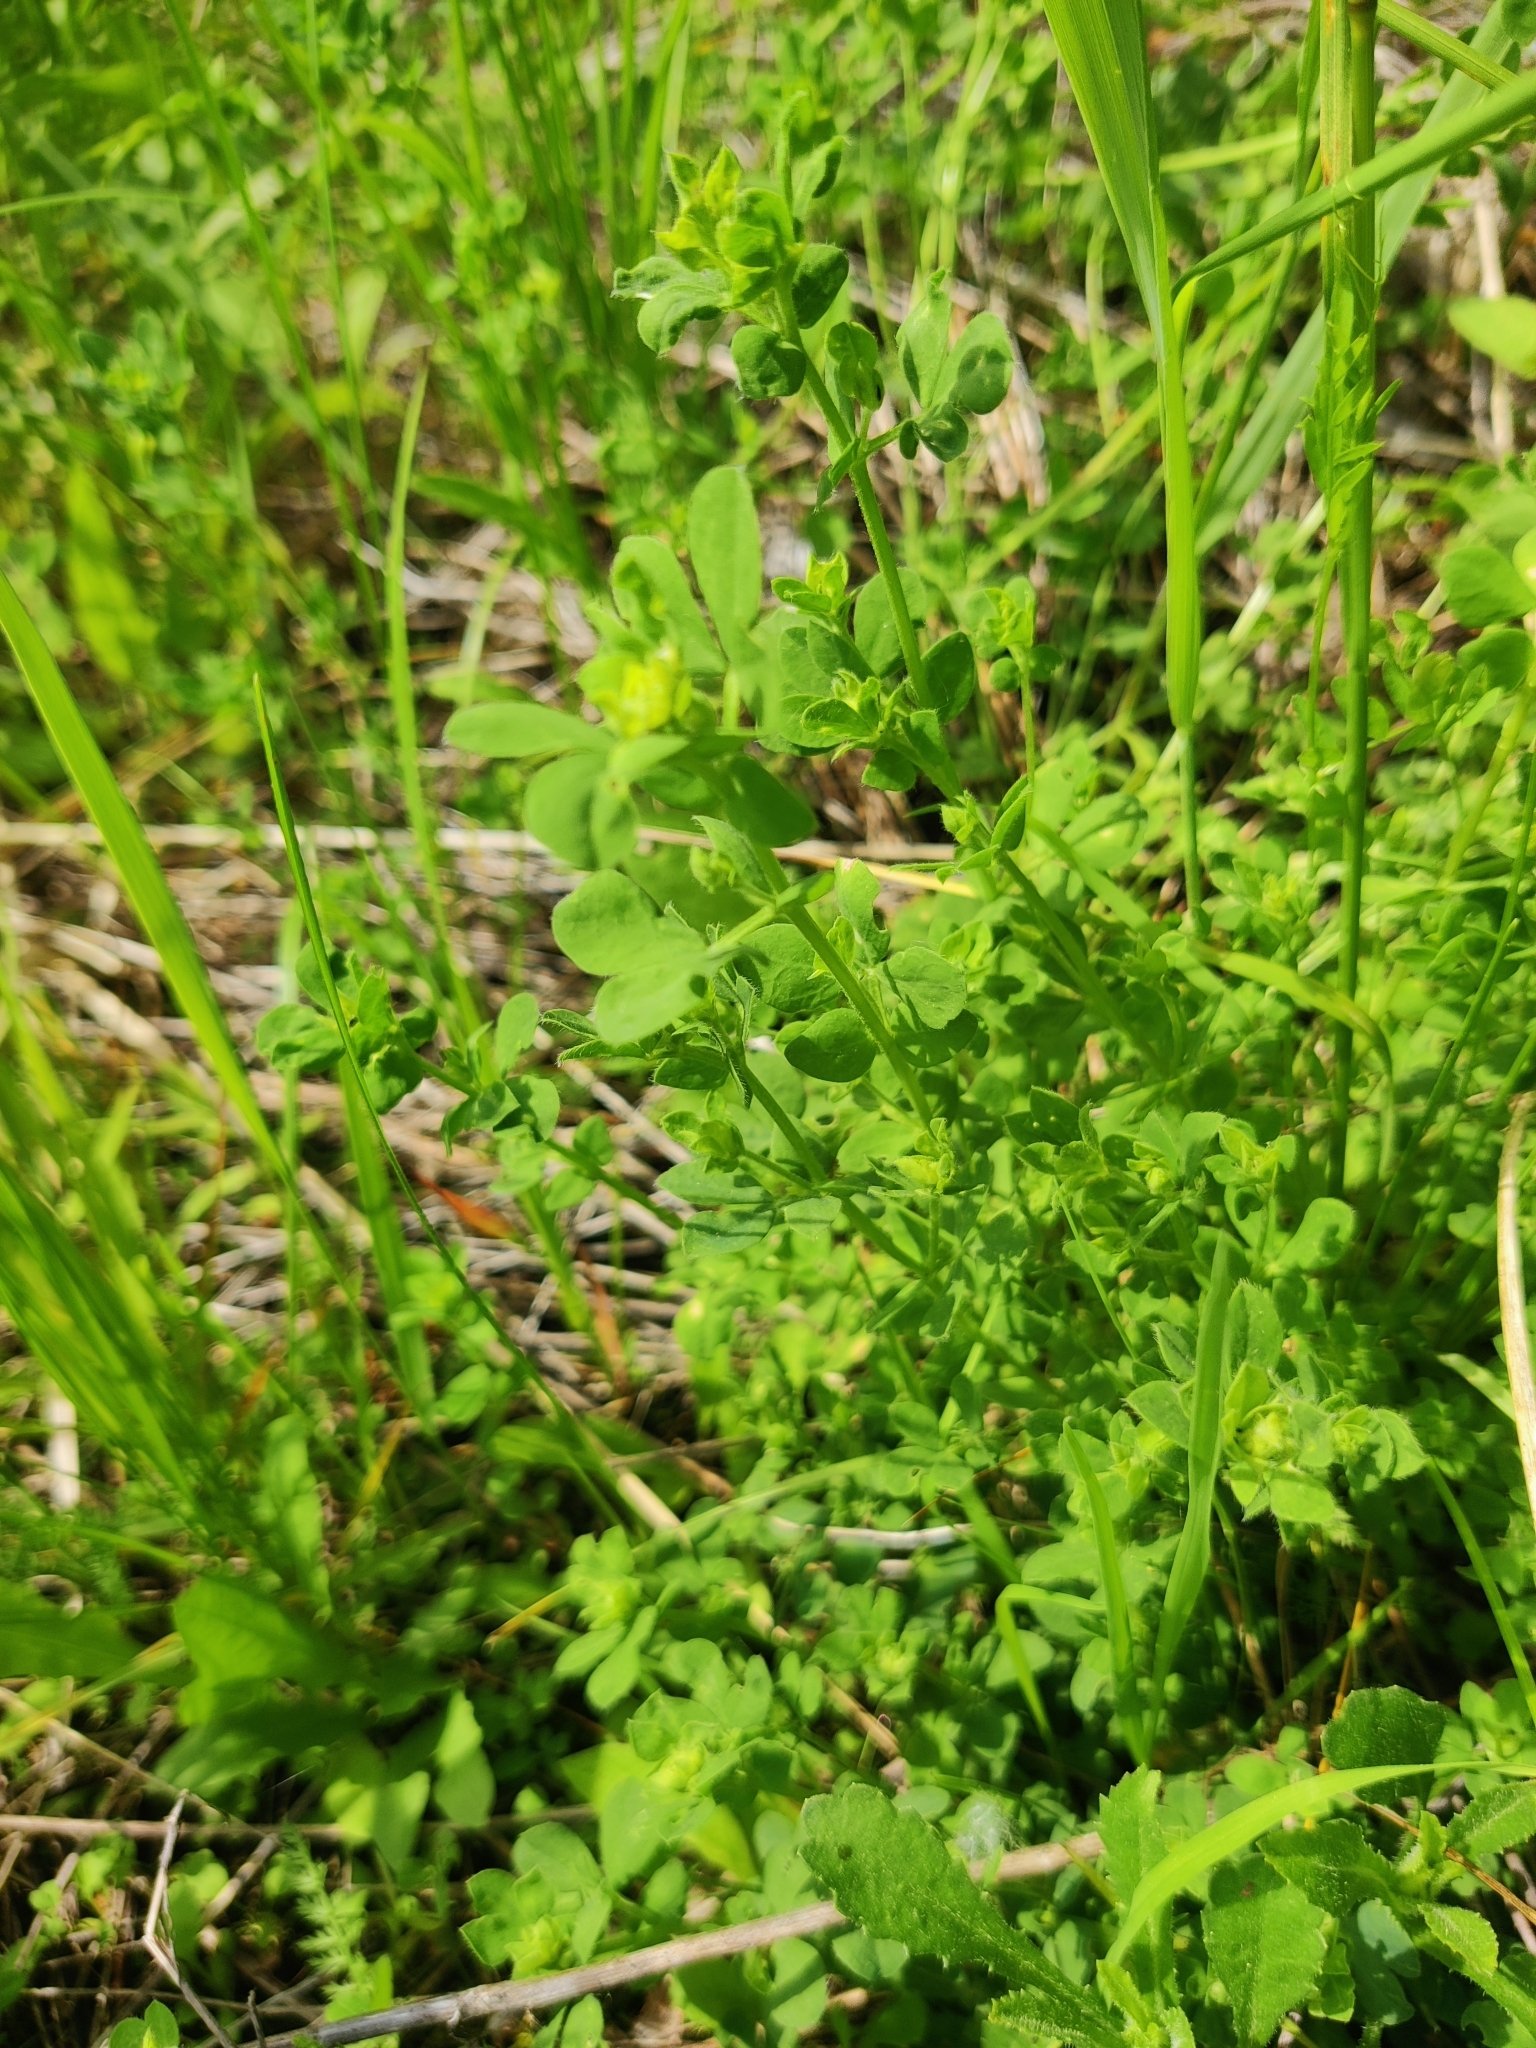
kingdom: Plantae
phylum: Tracheophyta
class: Magnoliopsida
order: Fabales
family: Fabaceae
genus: Lotus
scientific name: Lotus corniculatus
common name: Common bird's-foot-trefoil
